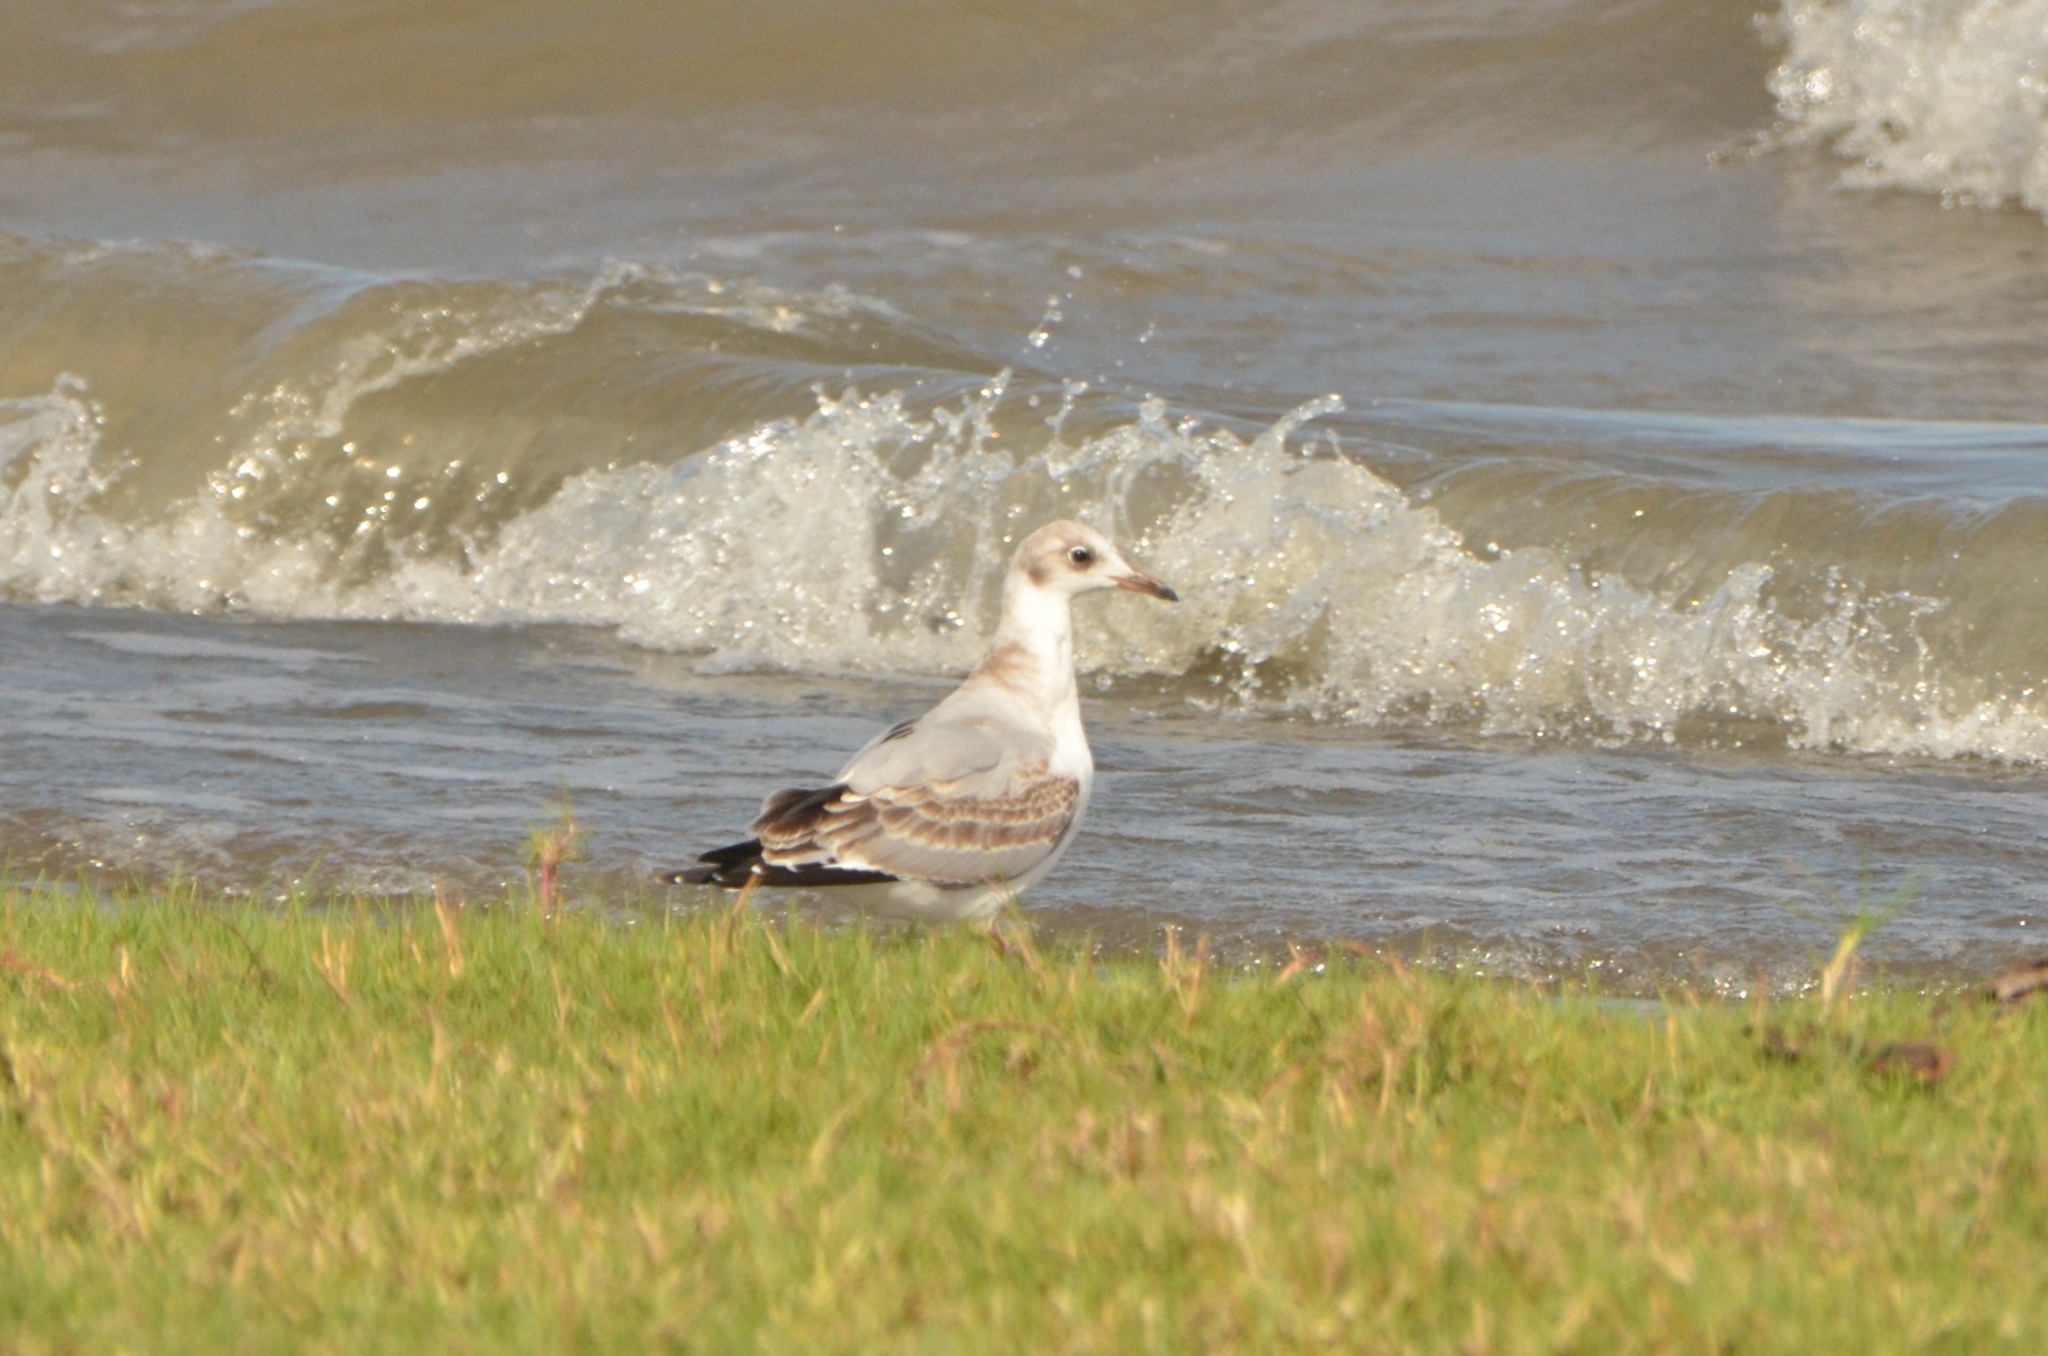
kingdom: Animalia
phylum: Chordata
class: Aves
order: Charadriiformes
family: Laridae
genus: Chroicocephalus
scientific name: Chroicocephalus cirrocephalus
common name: Grey-headed gull
